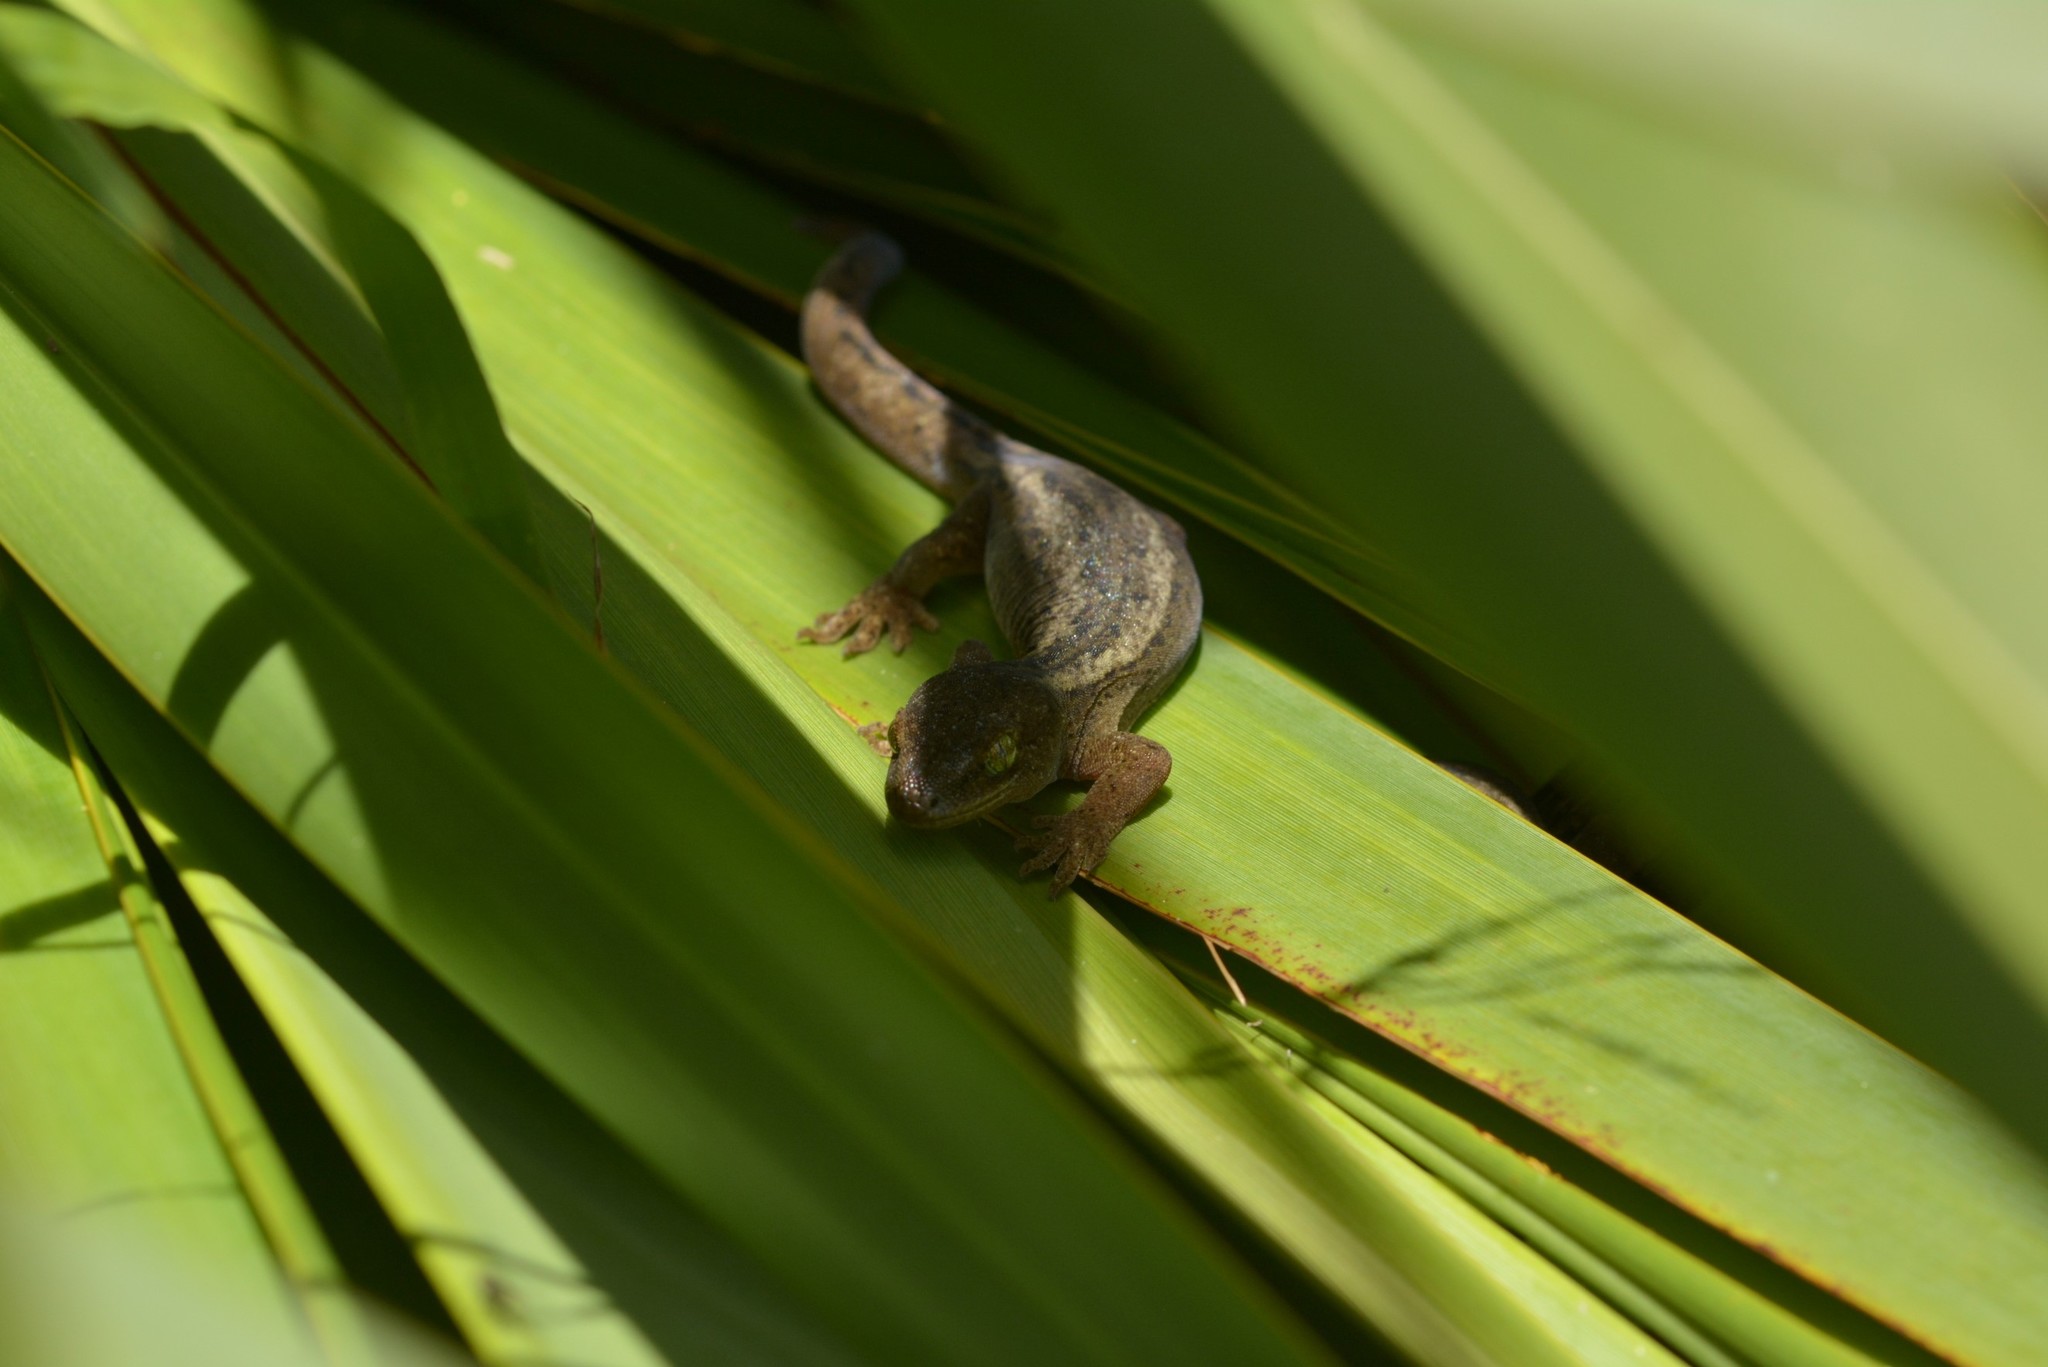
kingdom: Animalia
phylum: Chordata
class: Squamata
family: Diplodactylidae
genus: Woodworthia
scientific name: Woodworthia maculata
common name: Raukawa gecko
